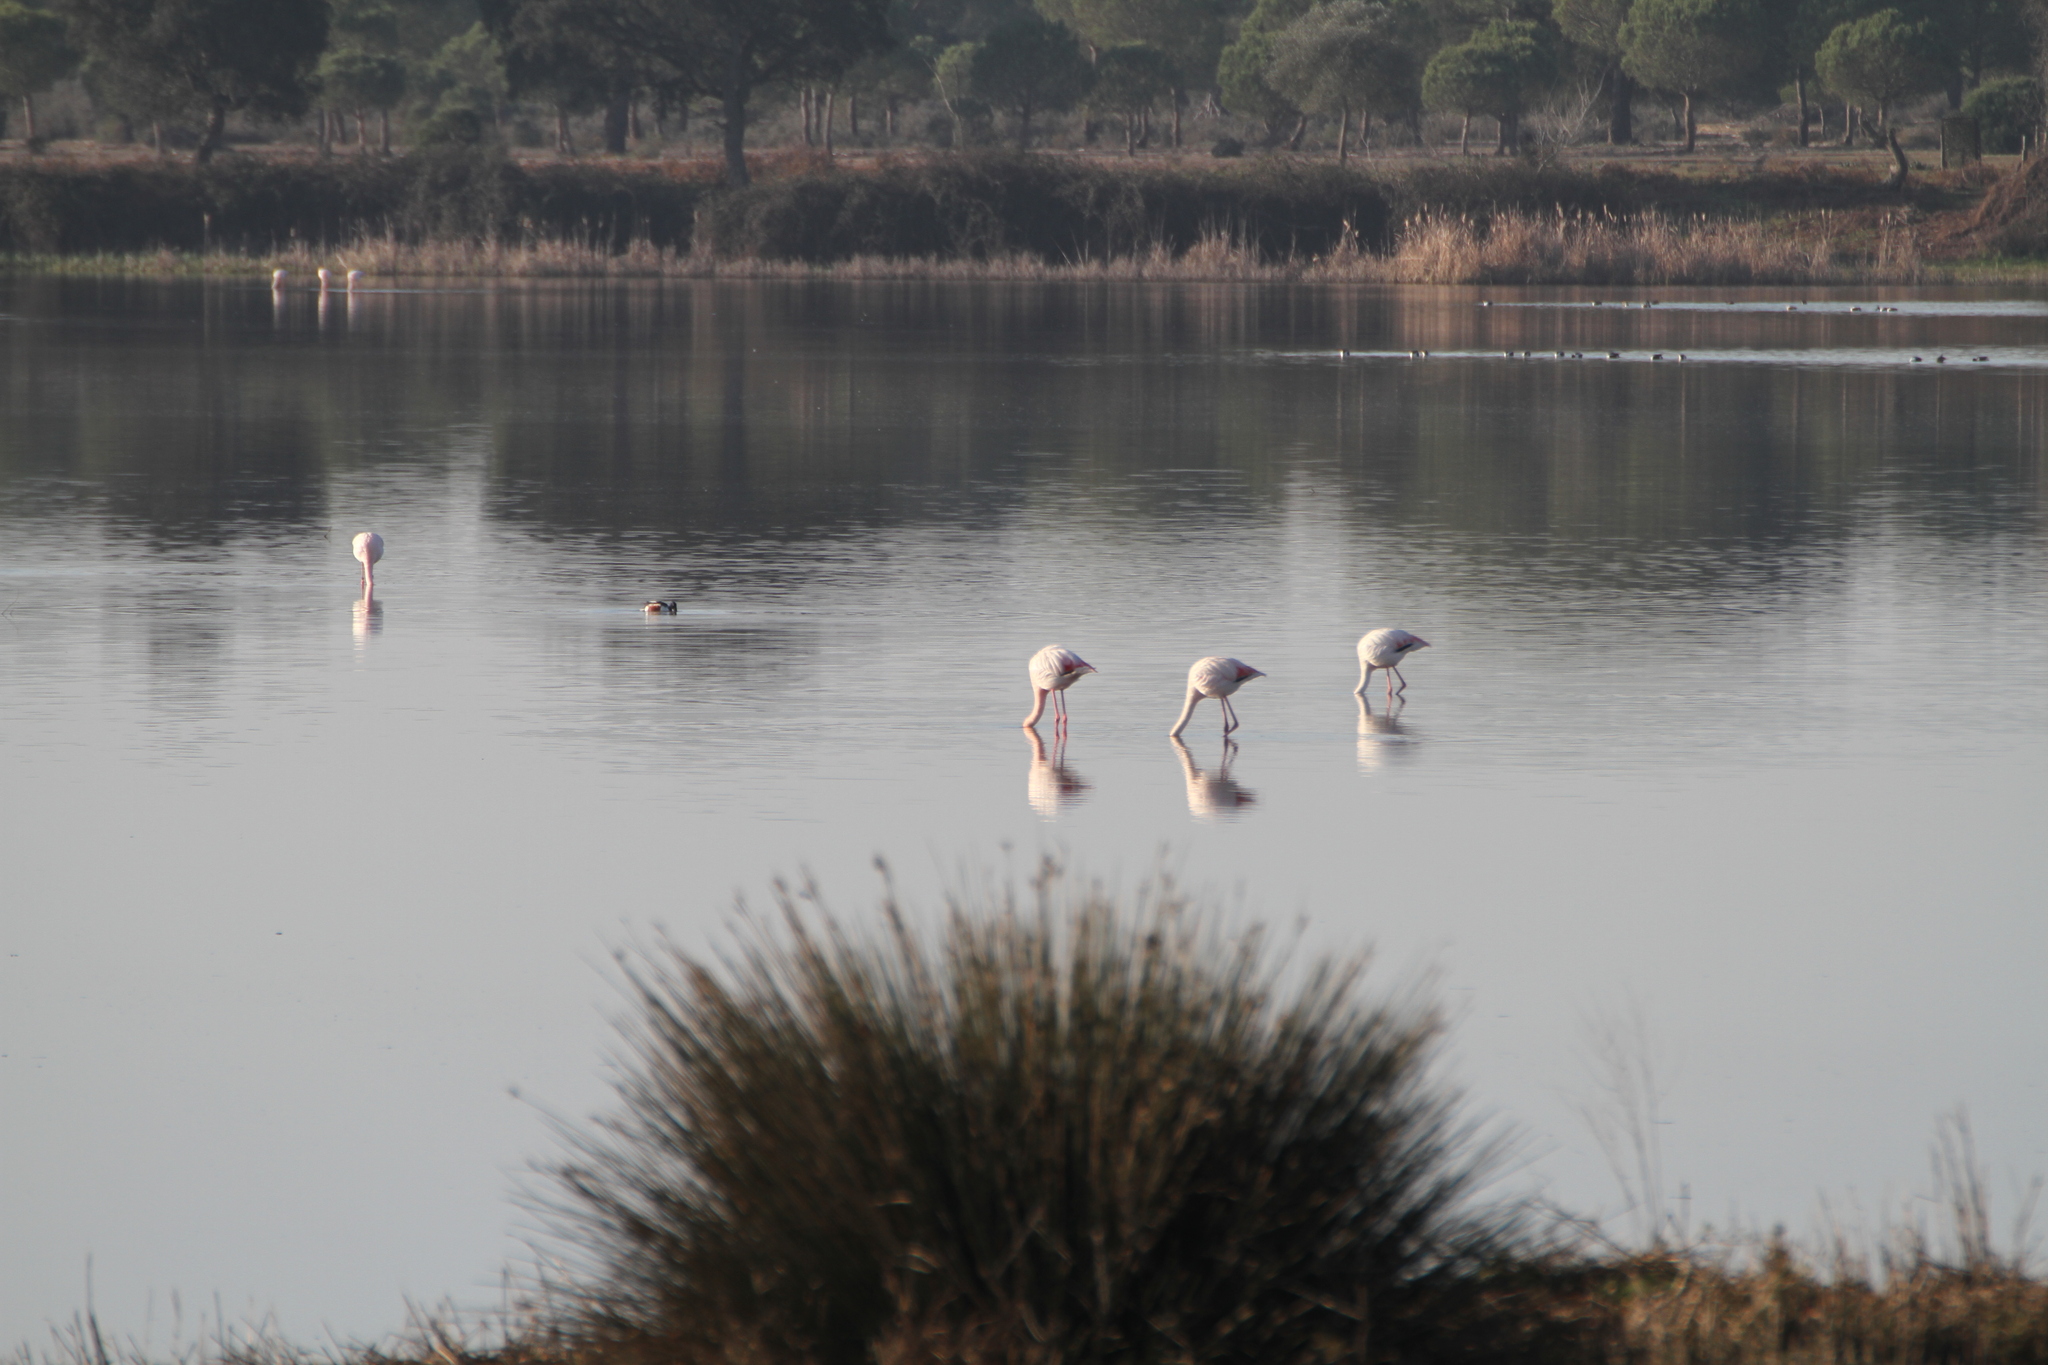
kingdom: Animalia
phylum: Chordata
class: Aves
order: Phoenicopteriformes
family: Phoenicopteridae
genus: Phoenicopterus
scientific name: Phoenicopterus roseus
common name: Greater flamingo
